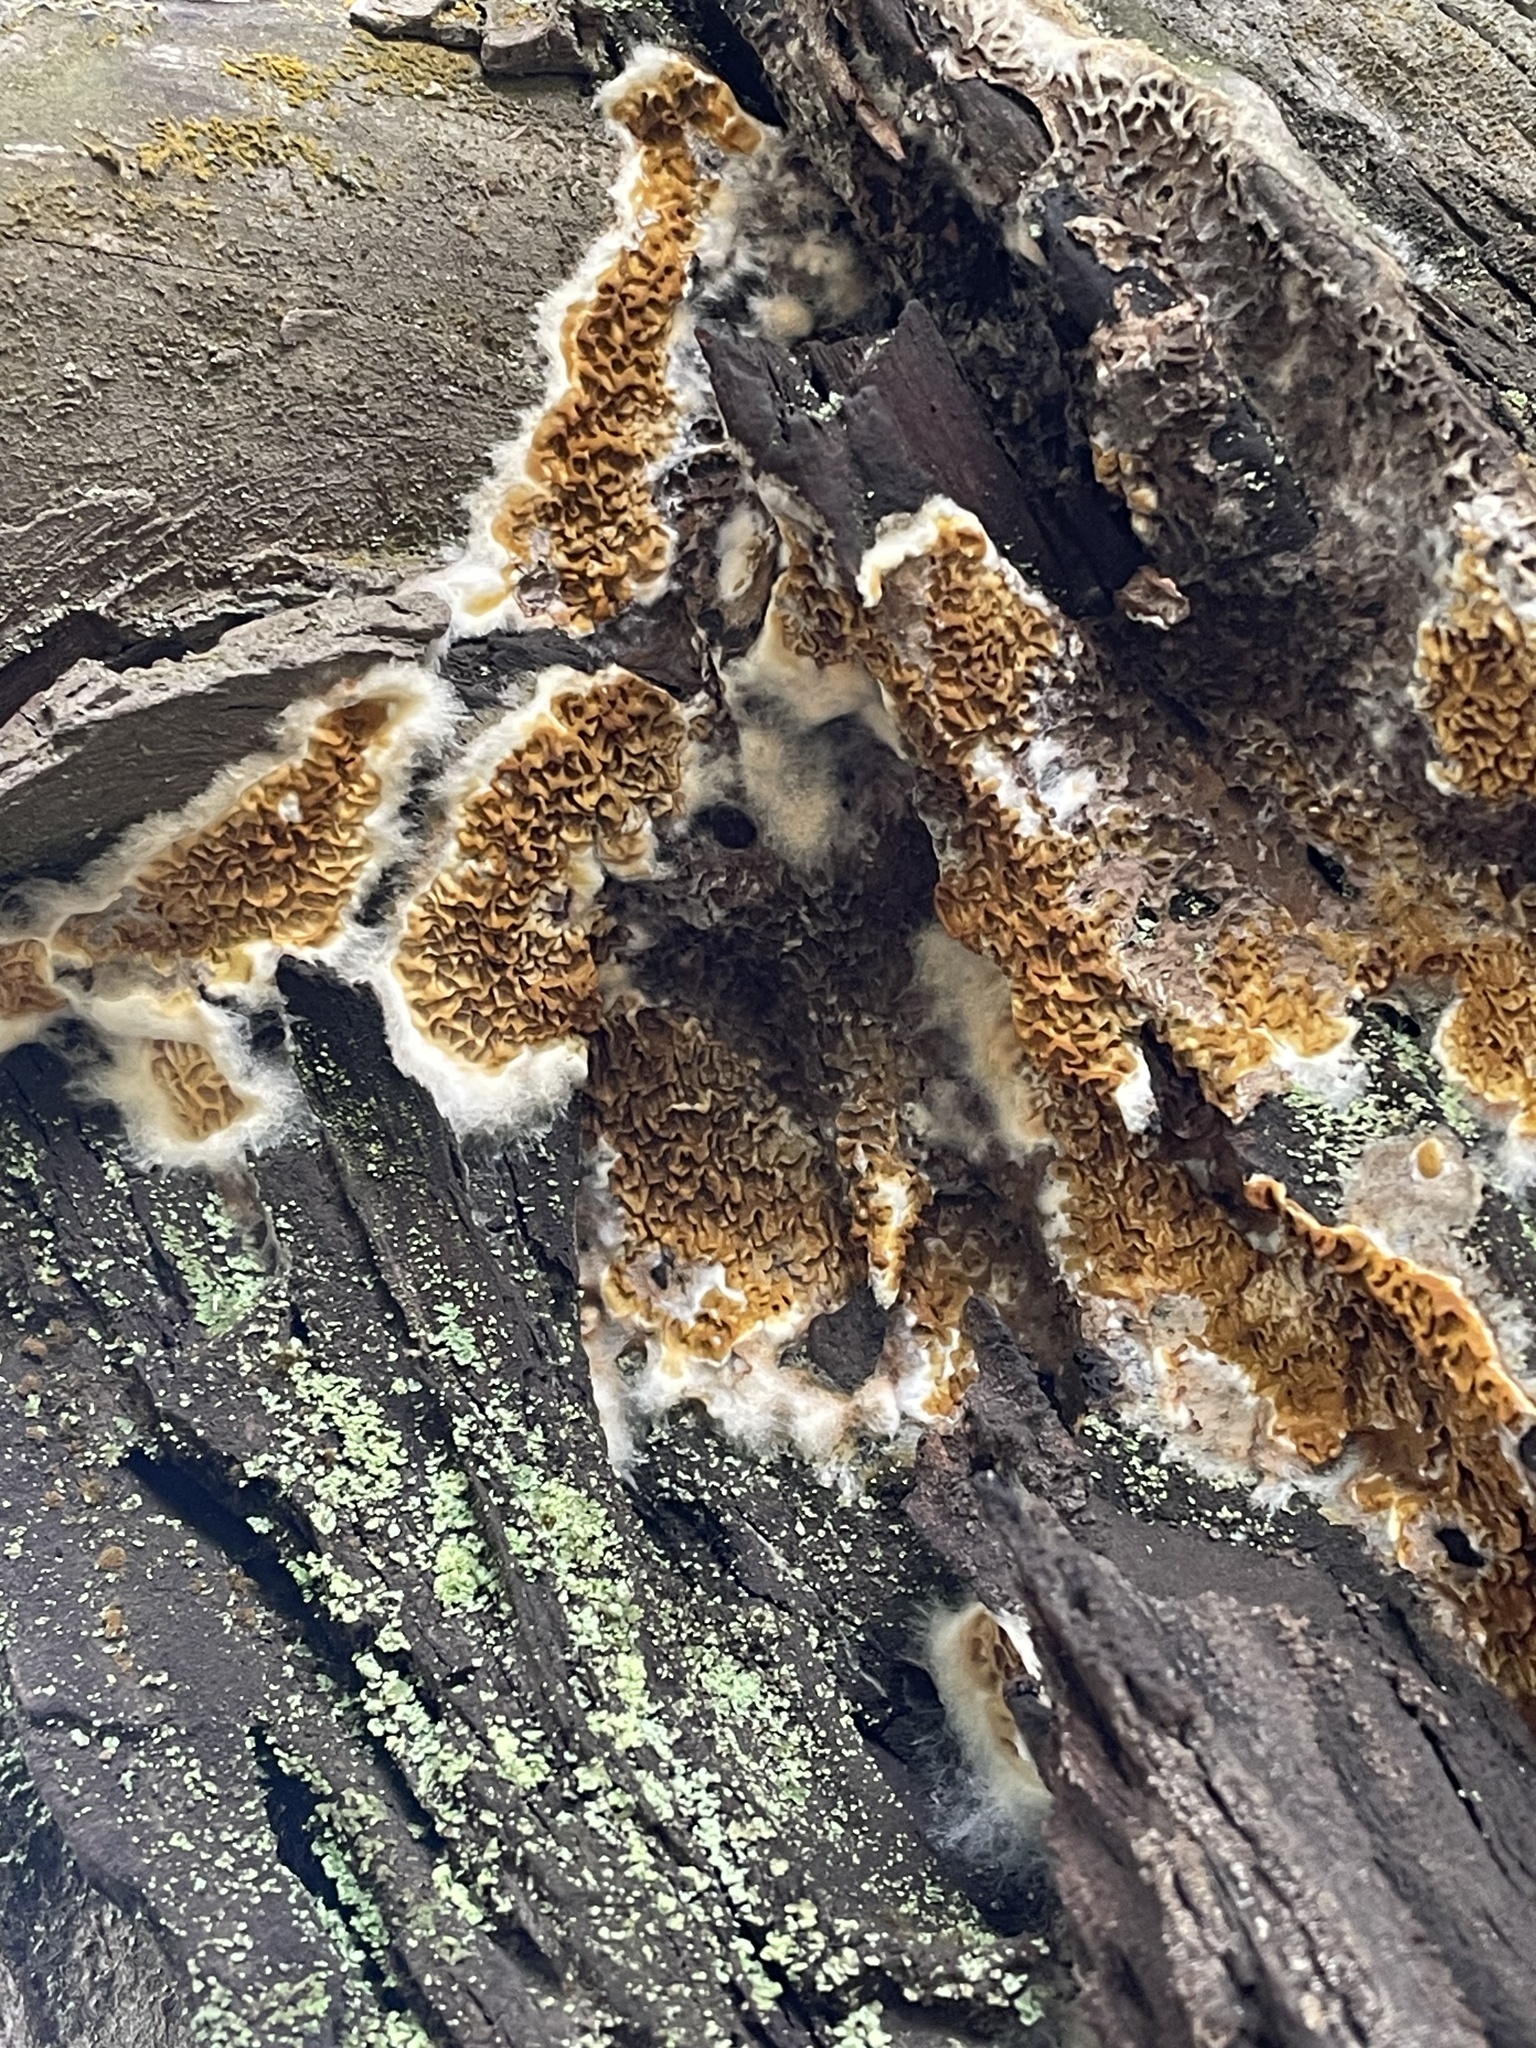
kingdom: Fungi
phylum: Basidiomycota
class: Agaricomycetes
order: Boletales
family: Serpulaceae
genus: Serpula
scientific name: Serpula himantioides
